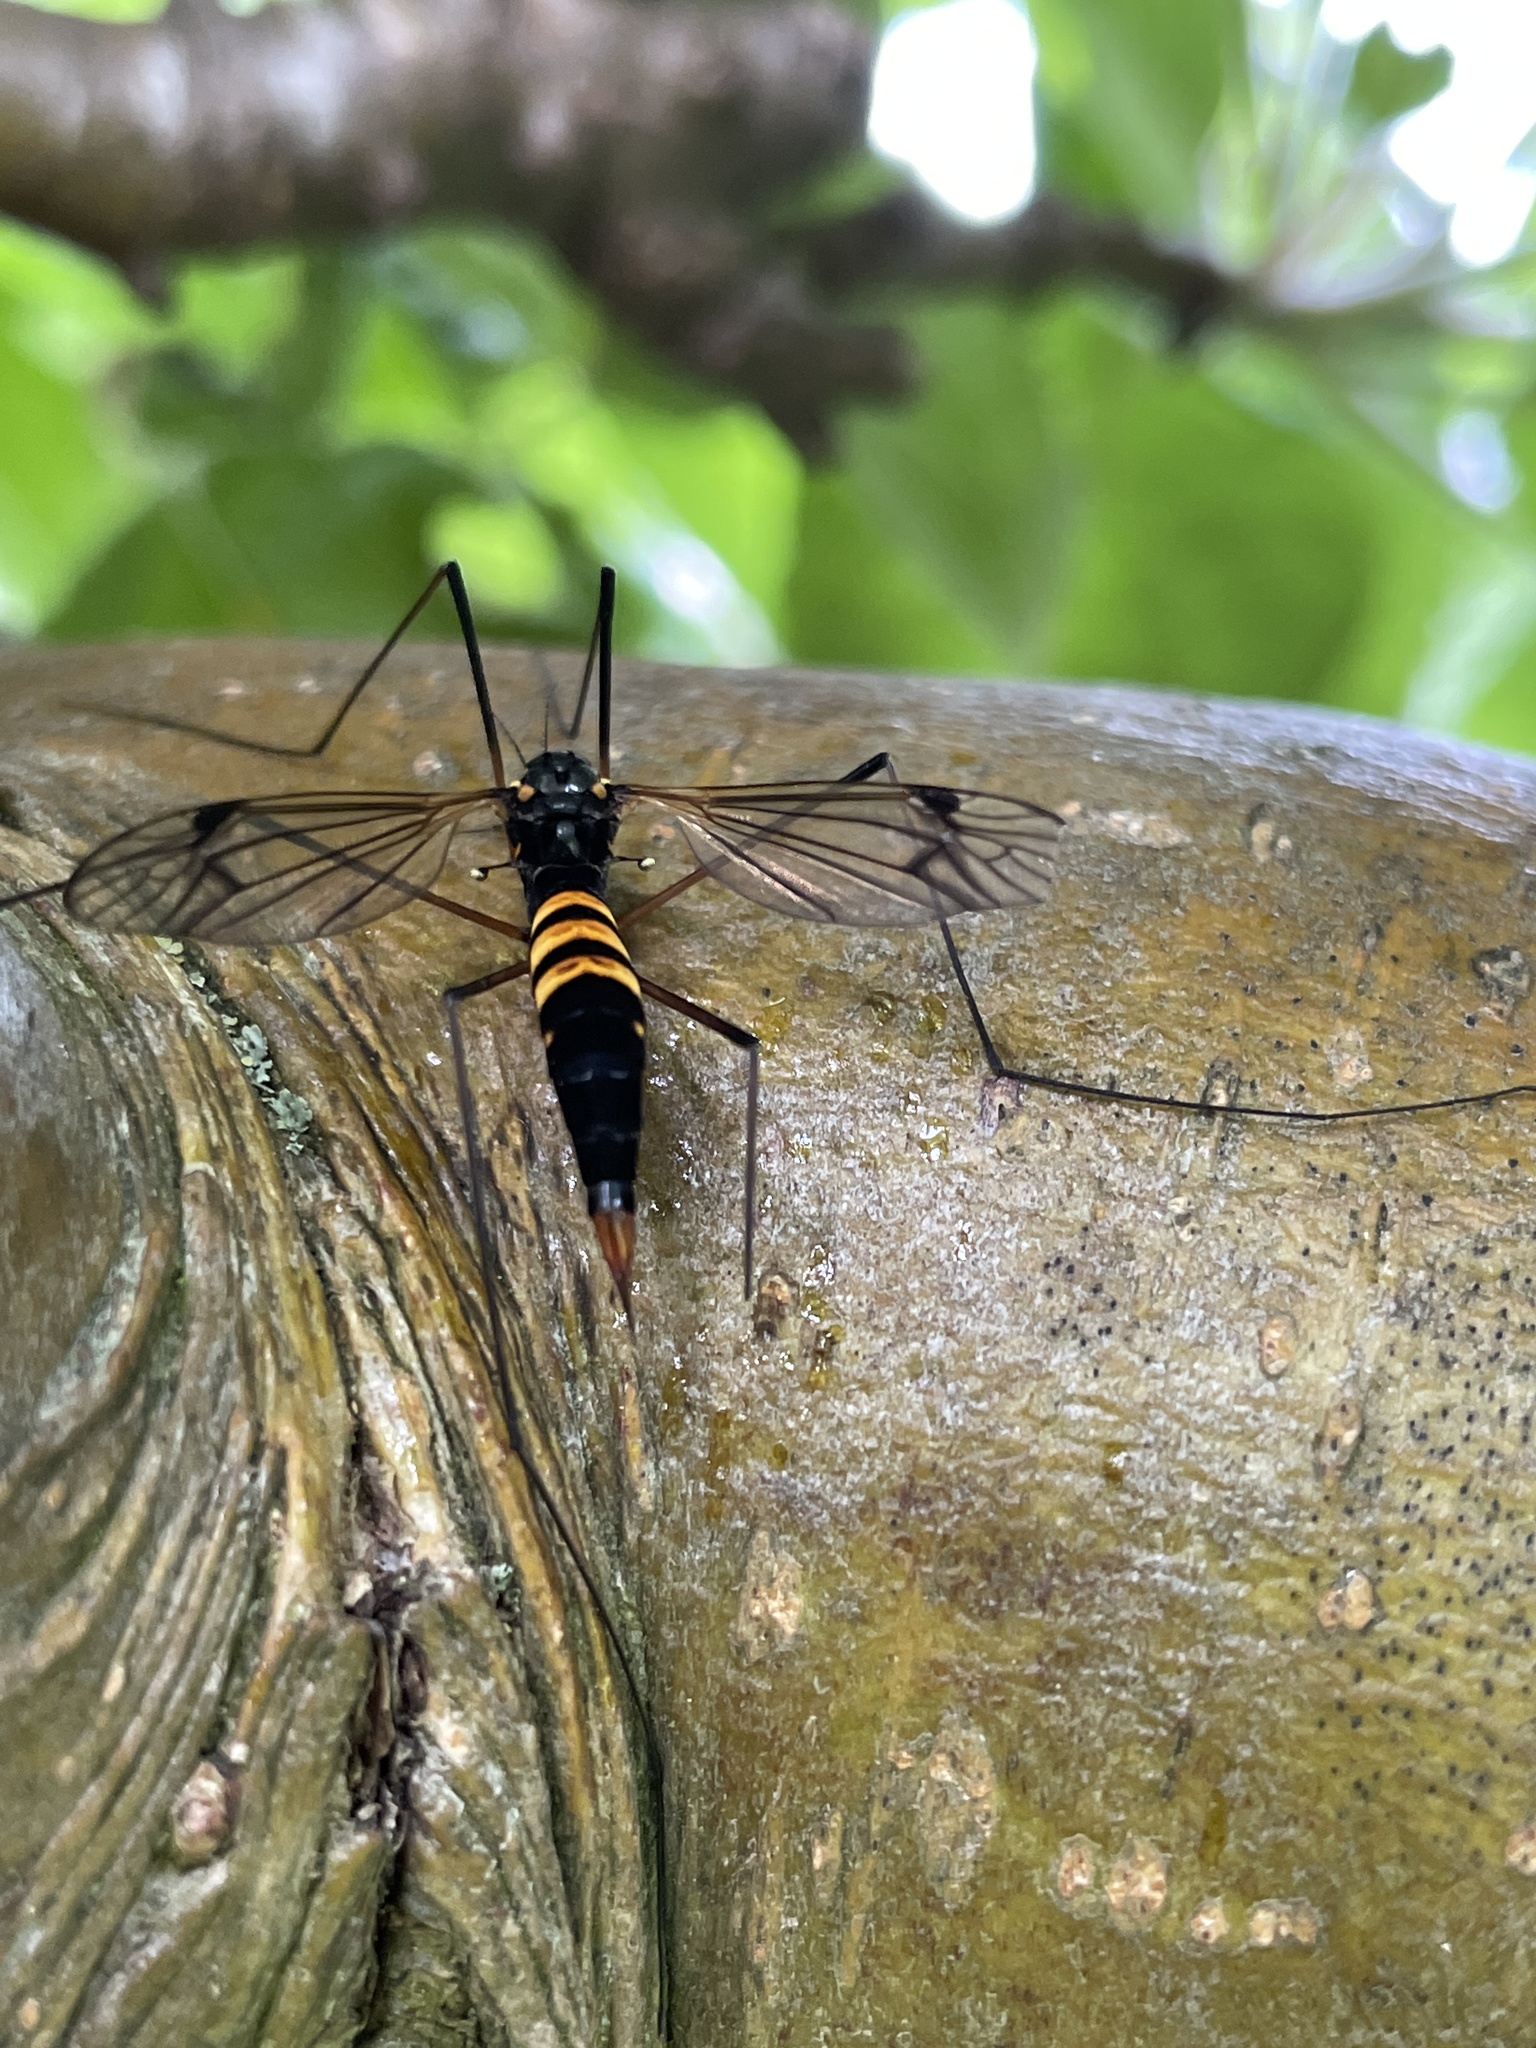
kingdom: Animalia
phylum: Arthropoda
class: Insecta
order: Diptera
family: Tipulidae
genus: Nephrotoma
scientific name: Nephrotoma crocata
